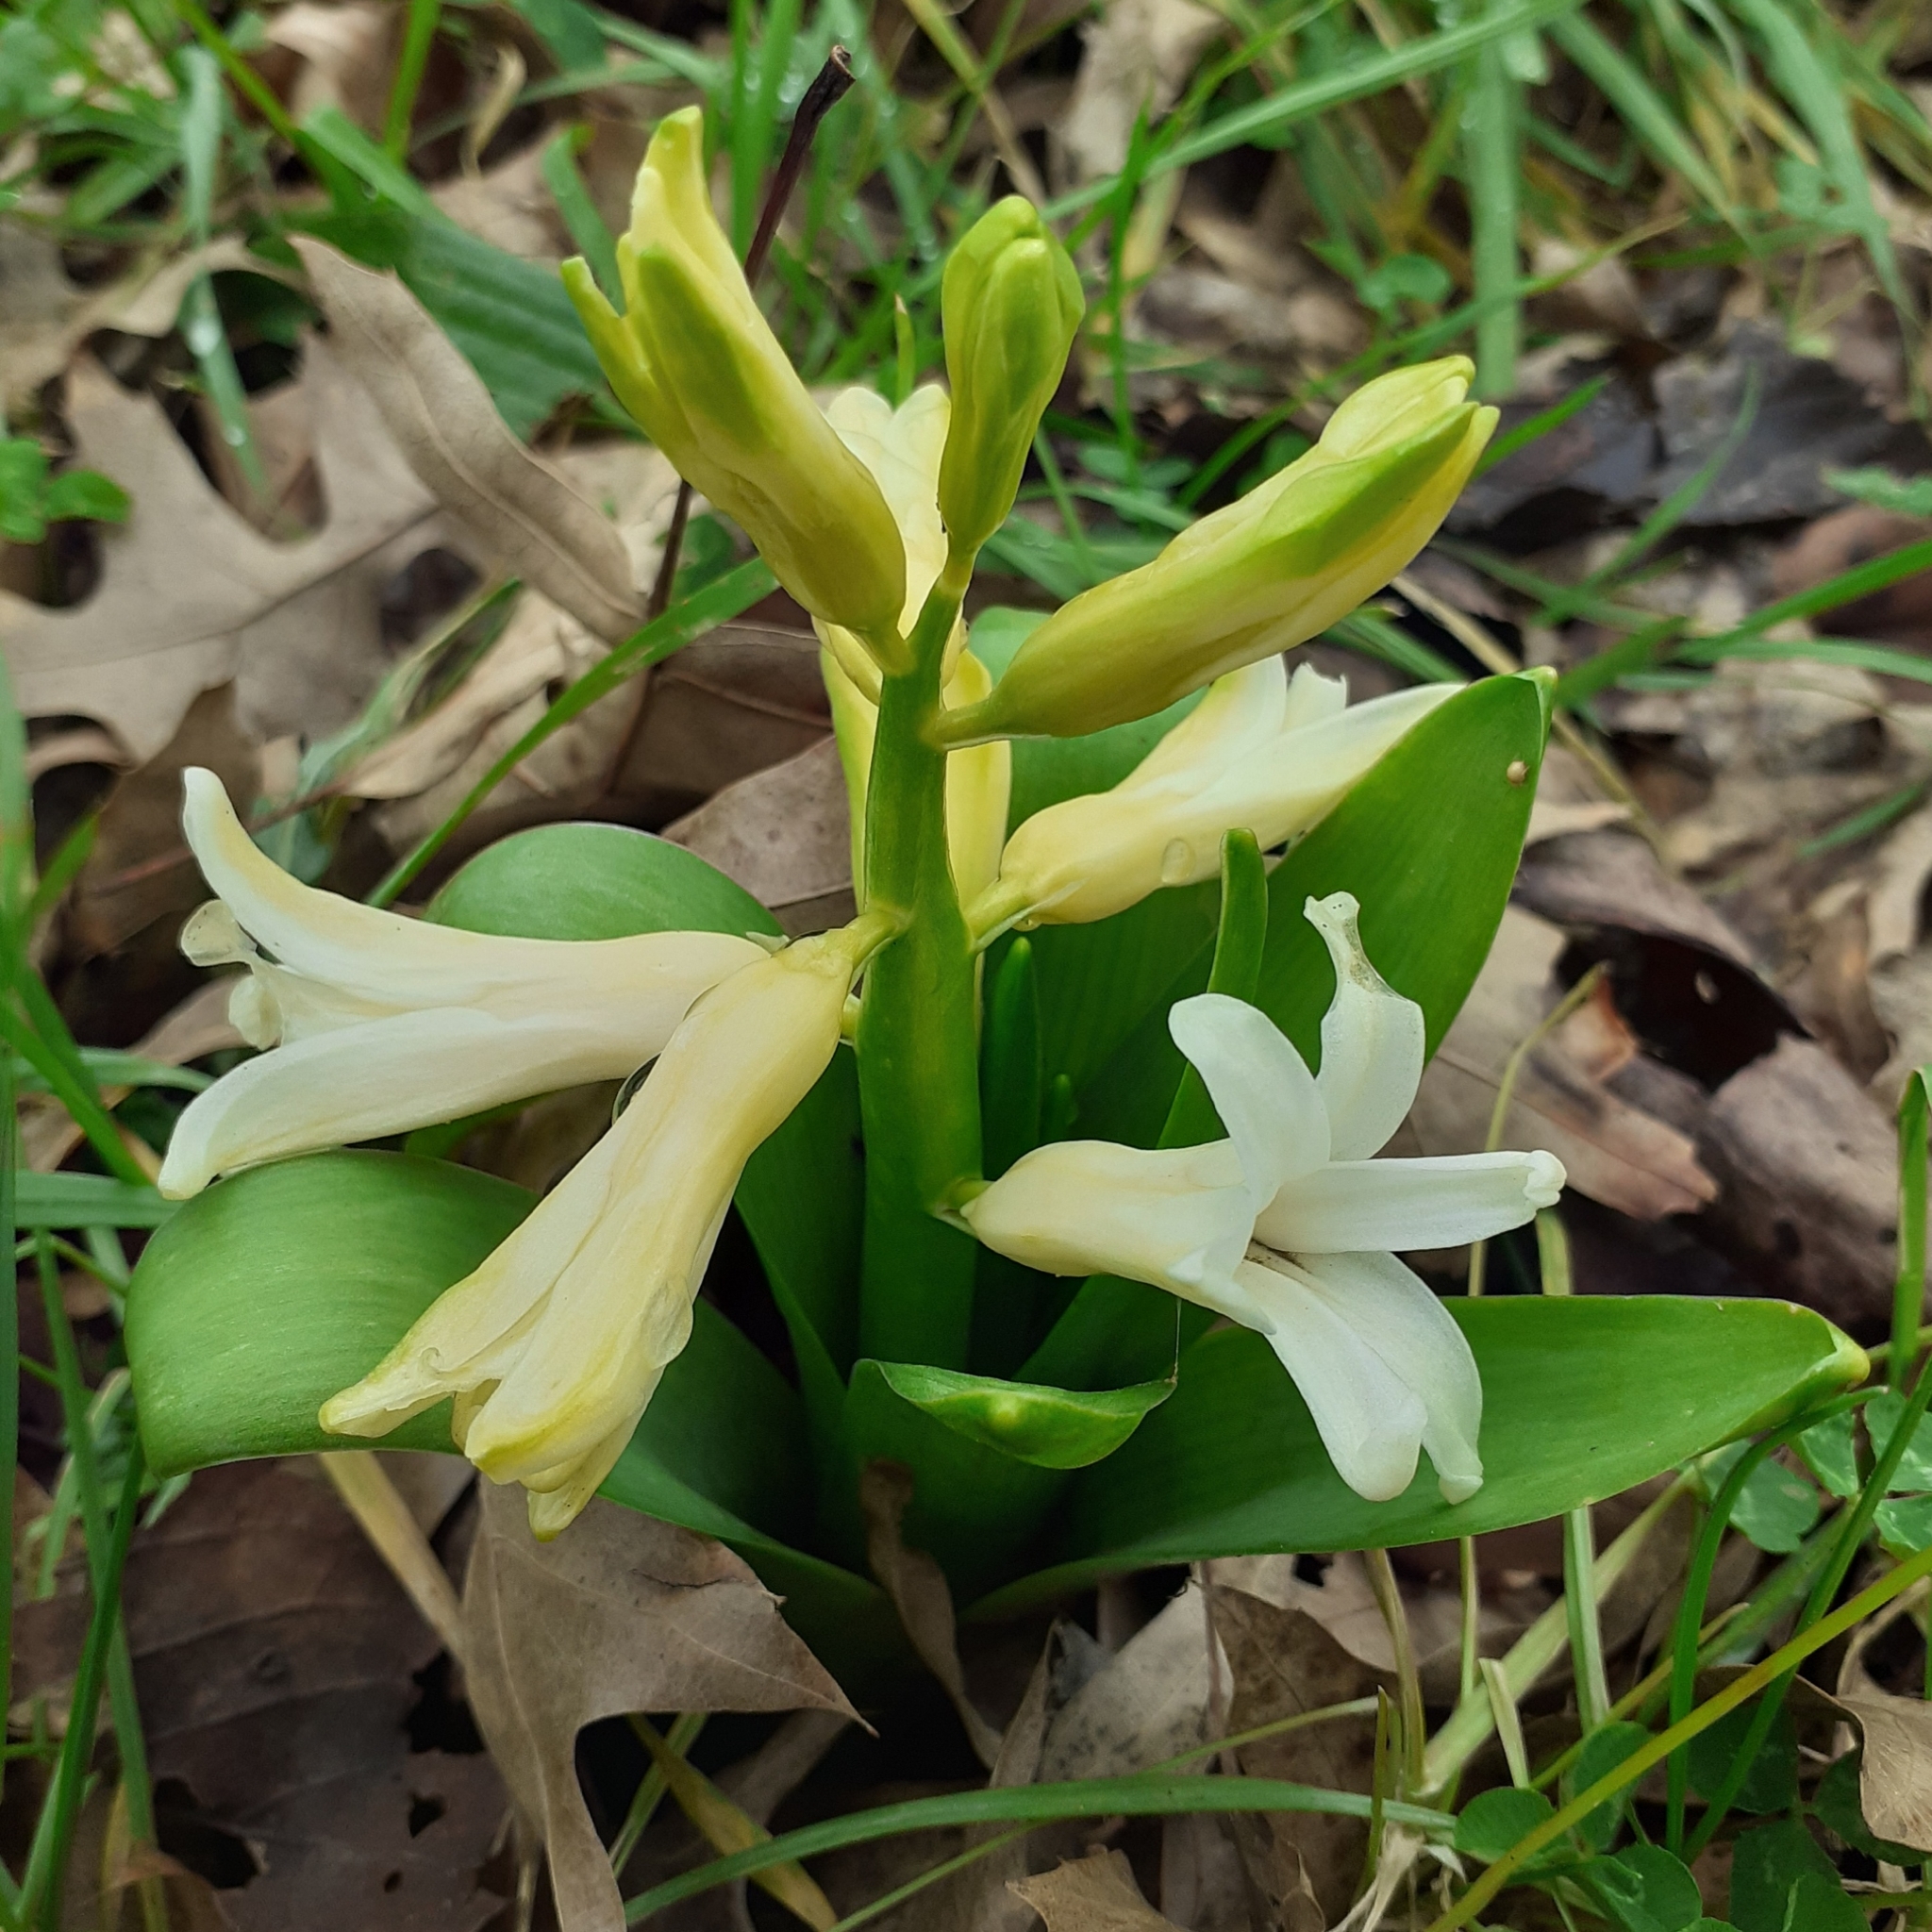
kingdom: Plantae
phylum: Tracheophyta
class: Liliopsida
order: Asparagales
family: Asparagaceae
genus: Hyacinthus
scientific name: Hyacinthus orientalis
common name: Hyacinth
